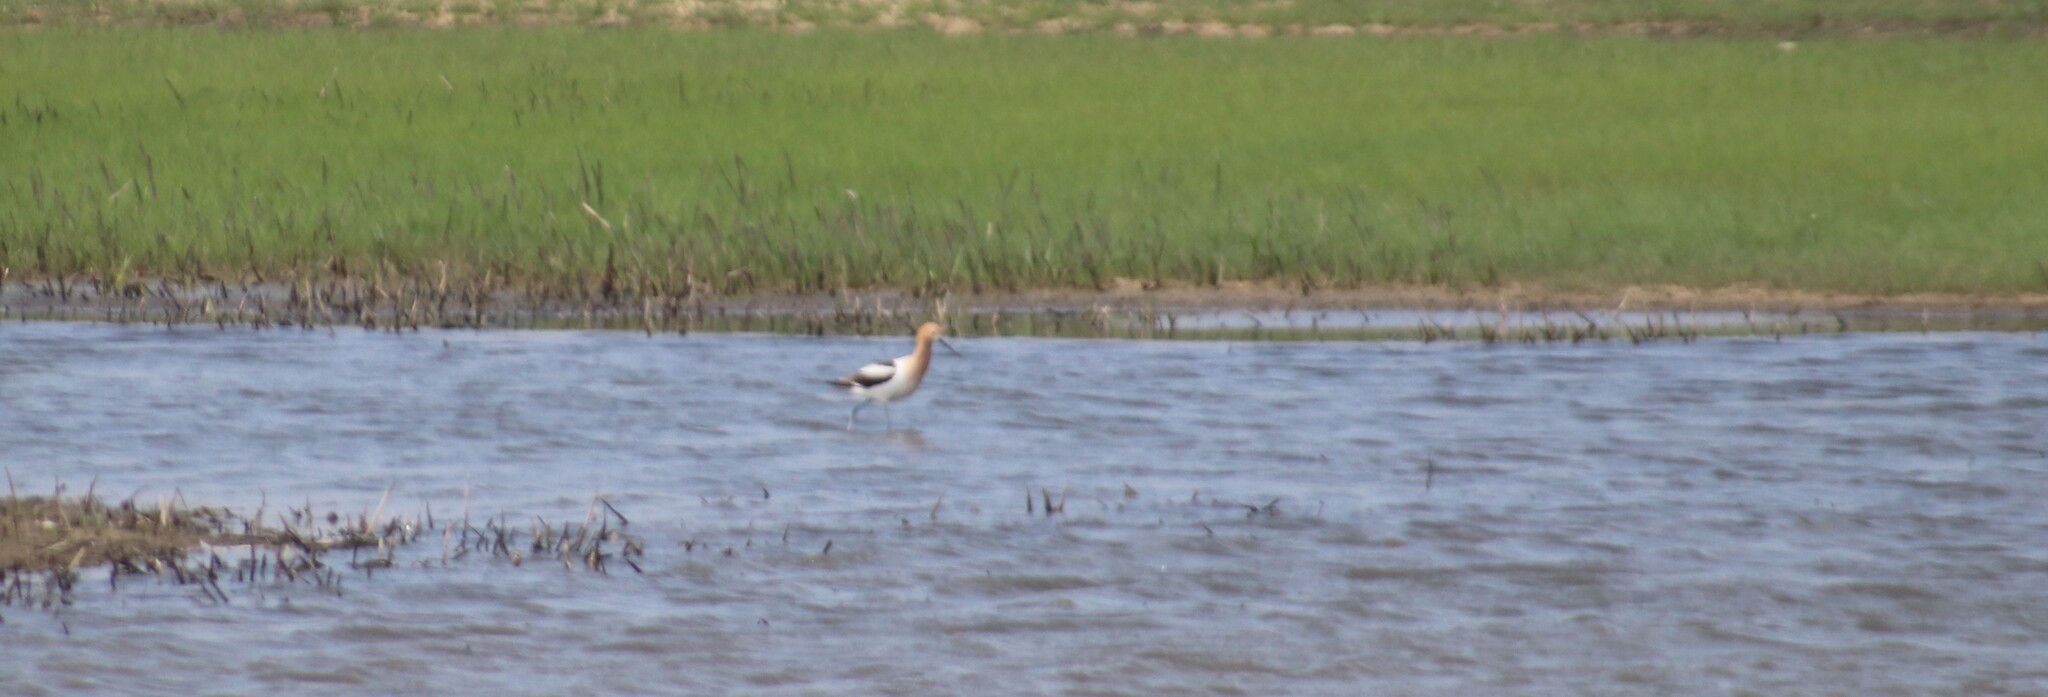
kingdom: Animalia
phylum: Chordata
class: Aves
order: Charadriiformes
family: Recurvirostridae
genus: Recurvirostra
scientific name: Recurvirostra americana
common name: American avocet
